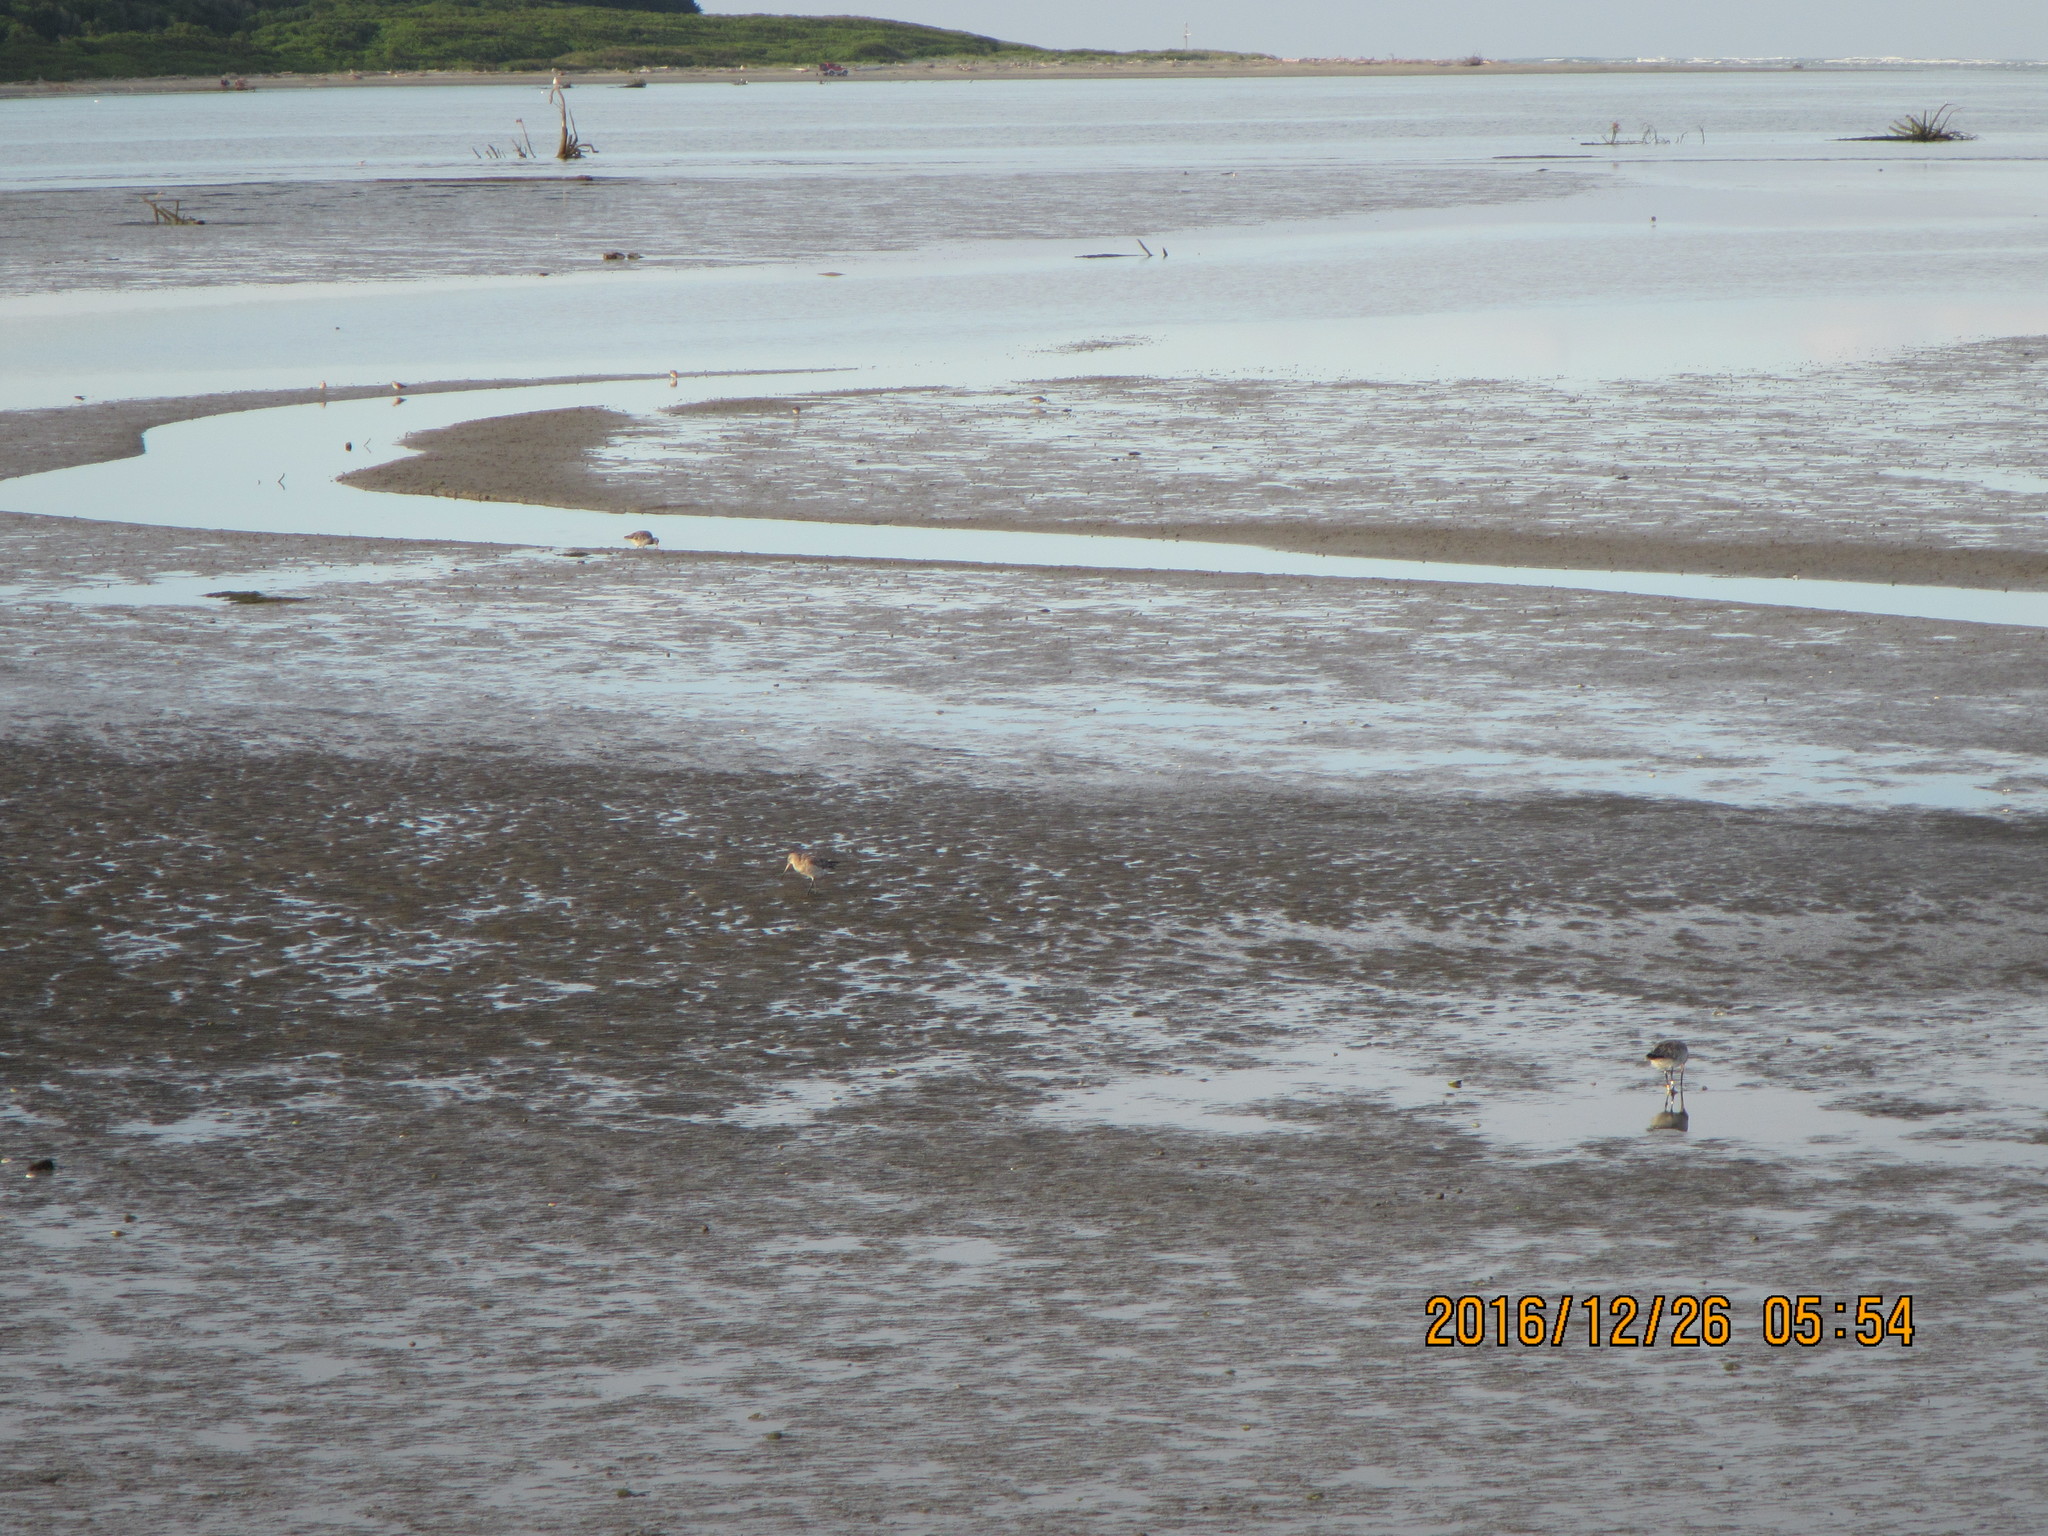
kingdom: Animalia
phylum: Chordata
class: Aves
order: Charadriiformes
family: Scolopacidae
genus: Limosa
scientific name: Limosa lapponica
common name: Bar-tailed godwit
